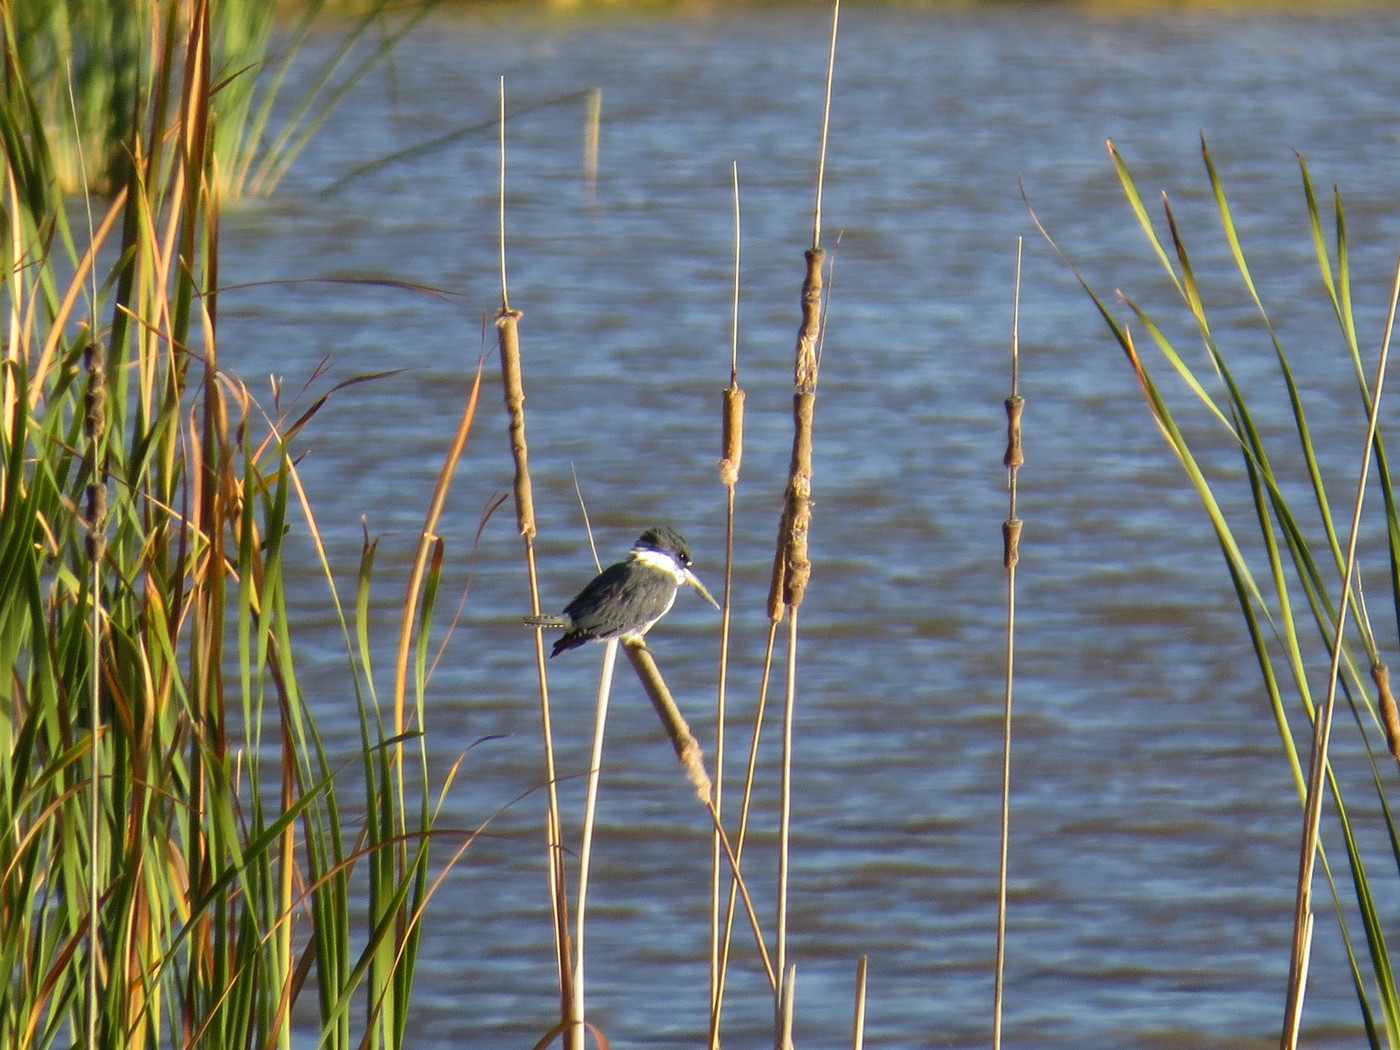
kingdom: Animalia
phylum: Chordata
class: Aves
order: Coraciiformes
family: Alcedinidae
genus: Megaceryle
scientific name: Megaceryle alcyon
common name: Belted kingfisher
